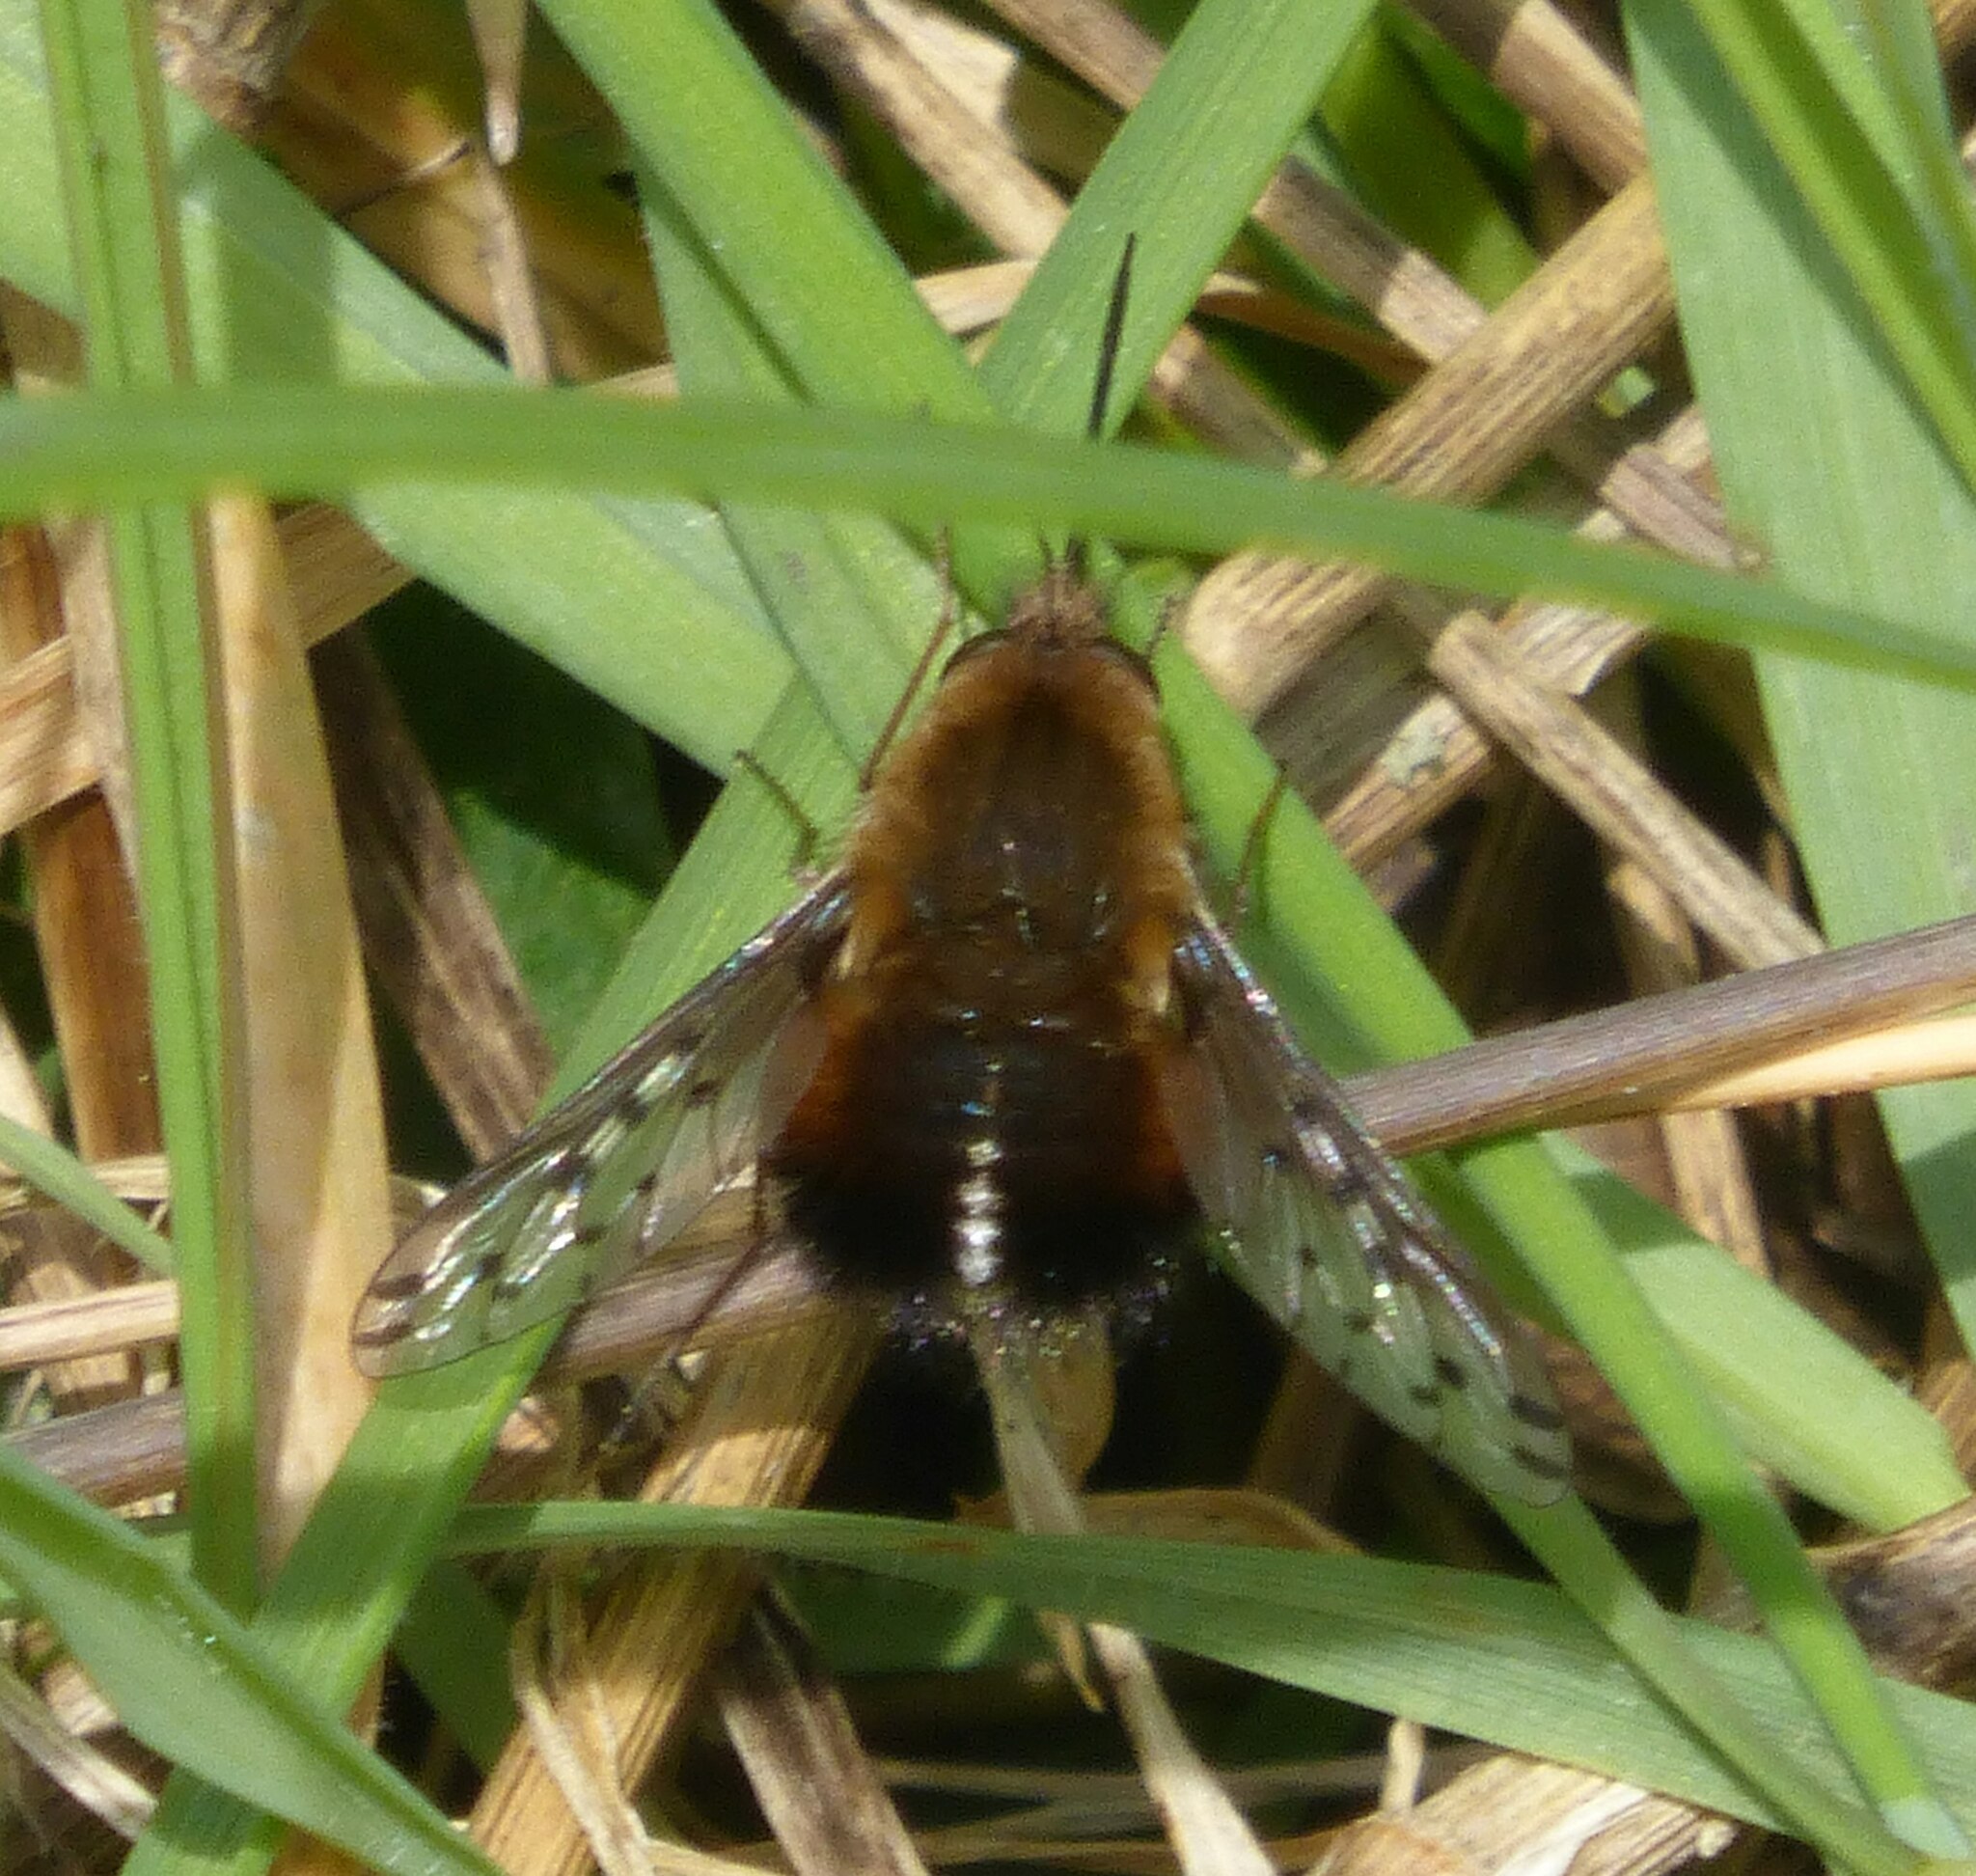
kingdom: Animalia
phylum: Arthropoda
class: Insecta
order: Diptera
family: Bombyliidae
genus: Bombylius
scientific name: Bombylius discolor
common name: Dotted bee-fly
